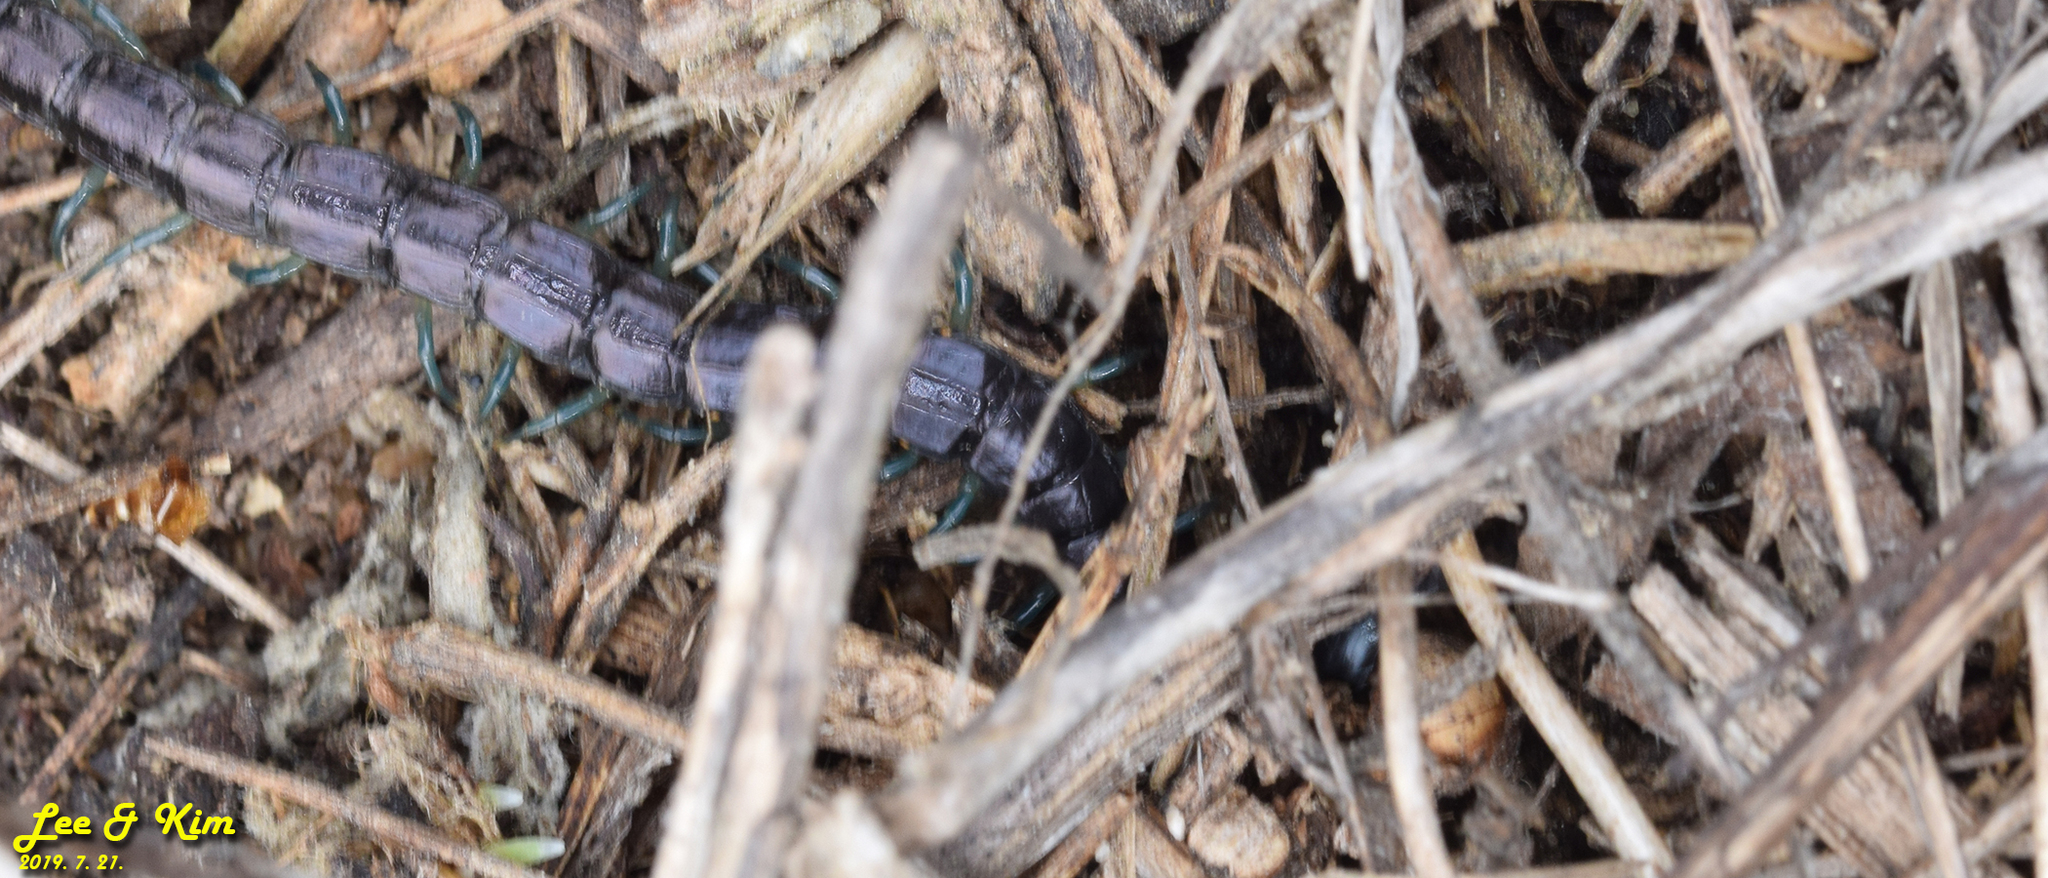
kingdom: Animalia
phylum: Arthropoda
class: Chilopoda
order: Scolopendromorpha
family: Scolopendridae
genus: Otostigmus
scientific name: Otostigmus politus
